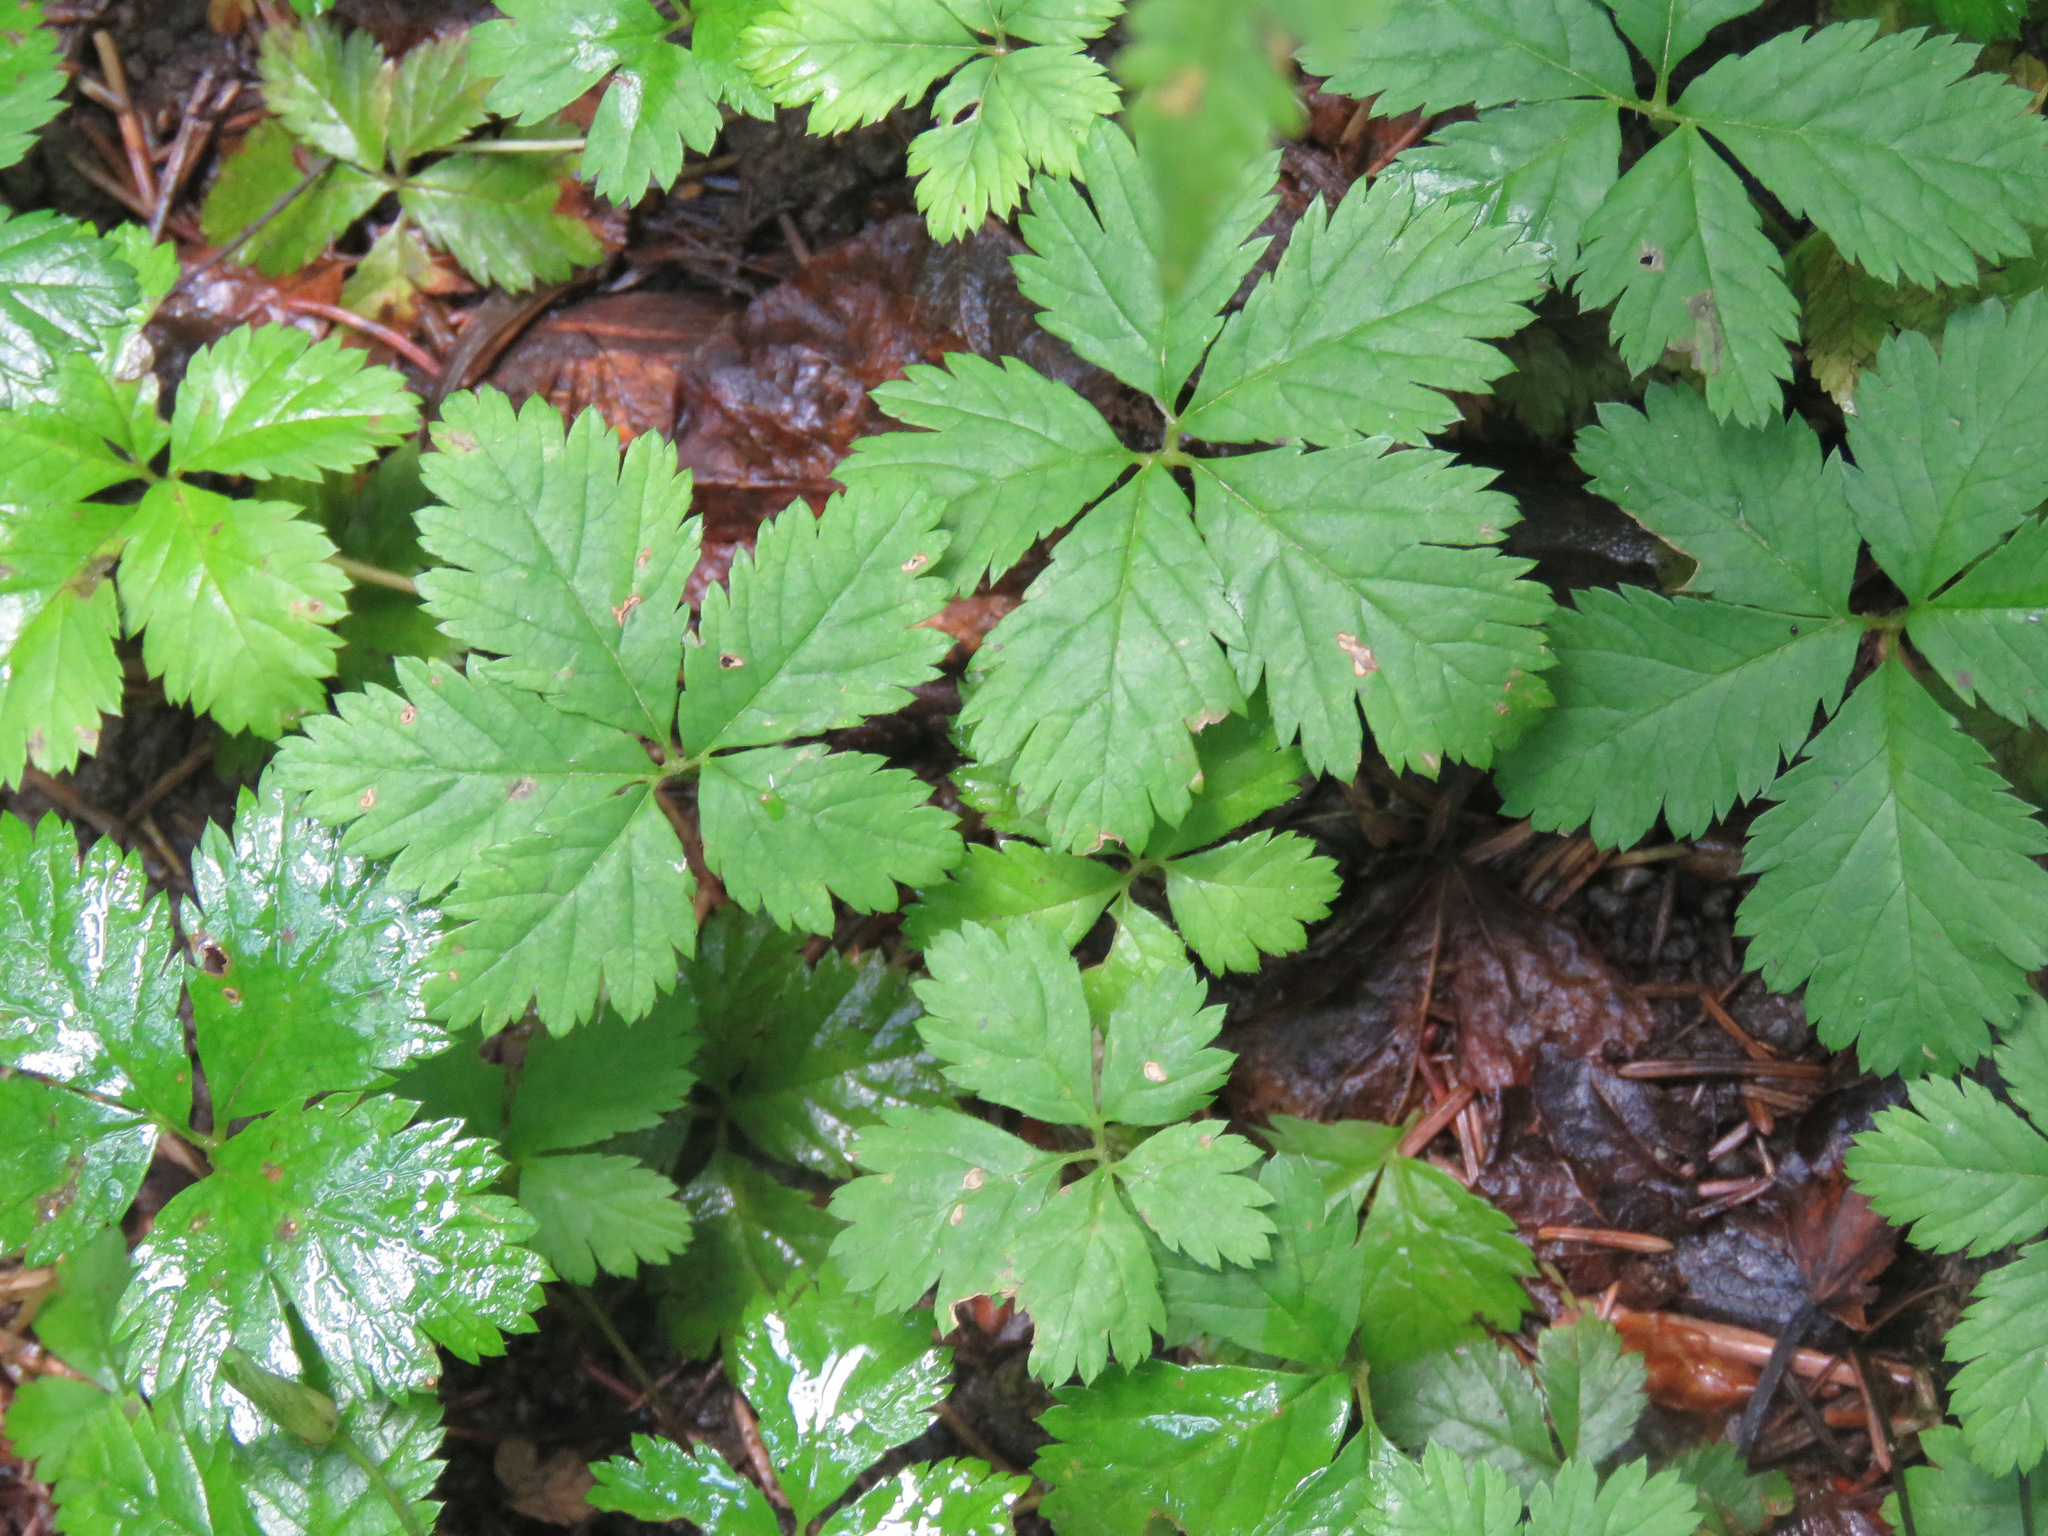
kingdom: Plantae
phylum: Tracheophyta
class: Magnoliopsida
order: Rosales
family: Rosaceae
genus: Rubus
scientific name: Rubus pedatus
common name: Creeping raspberry
